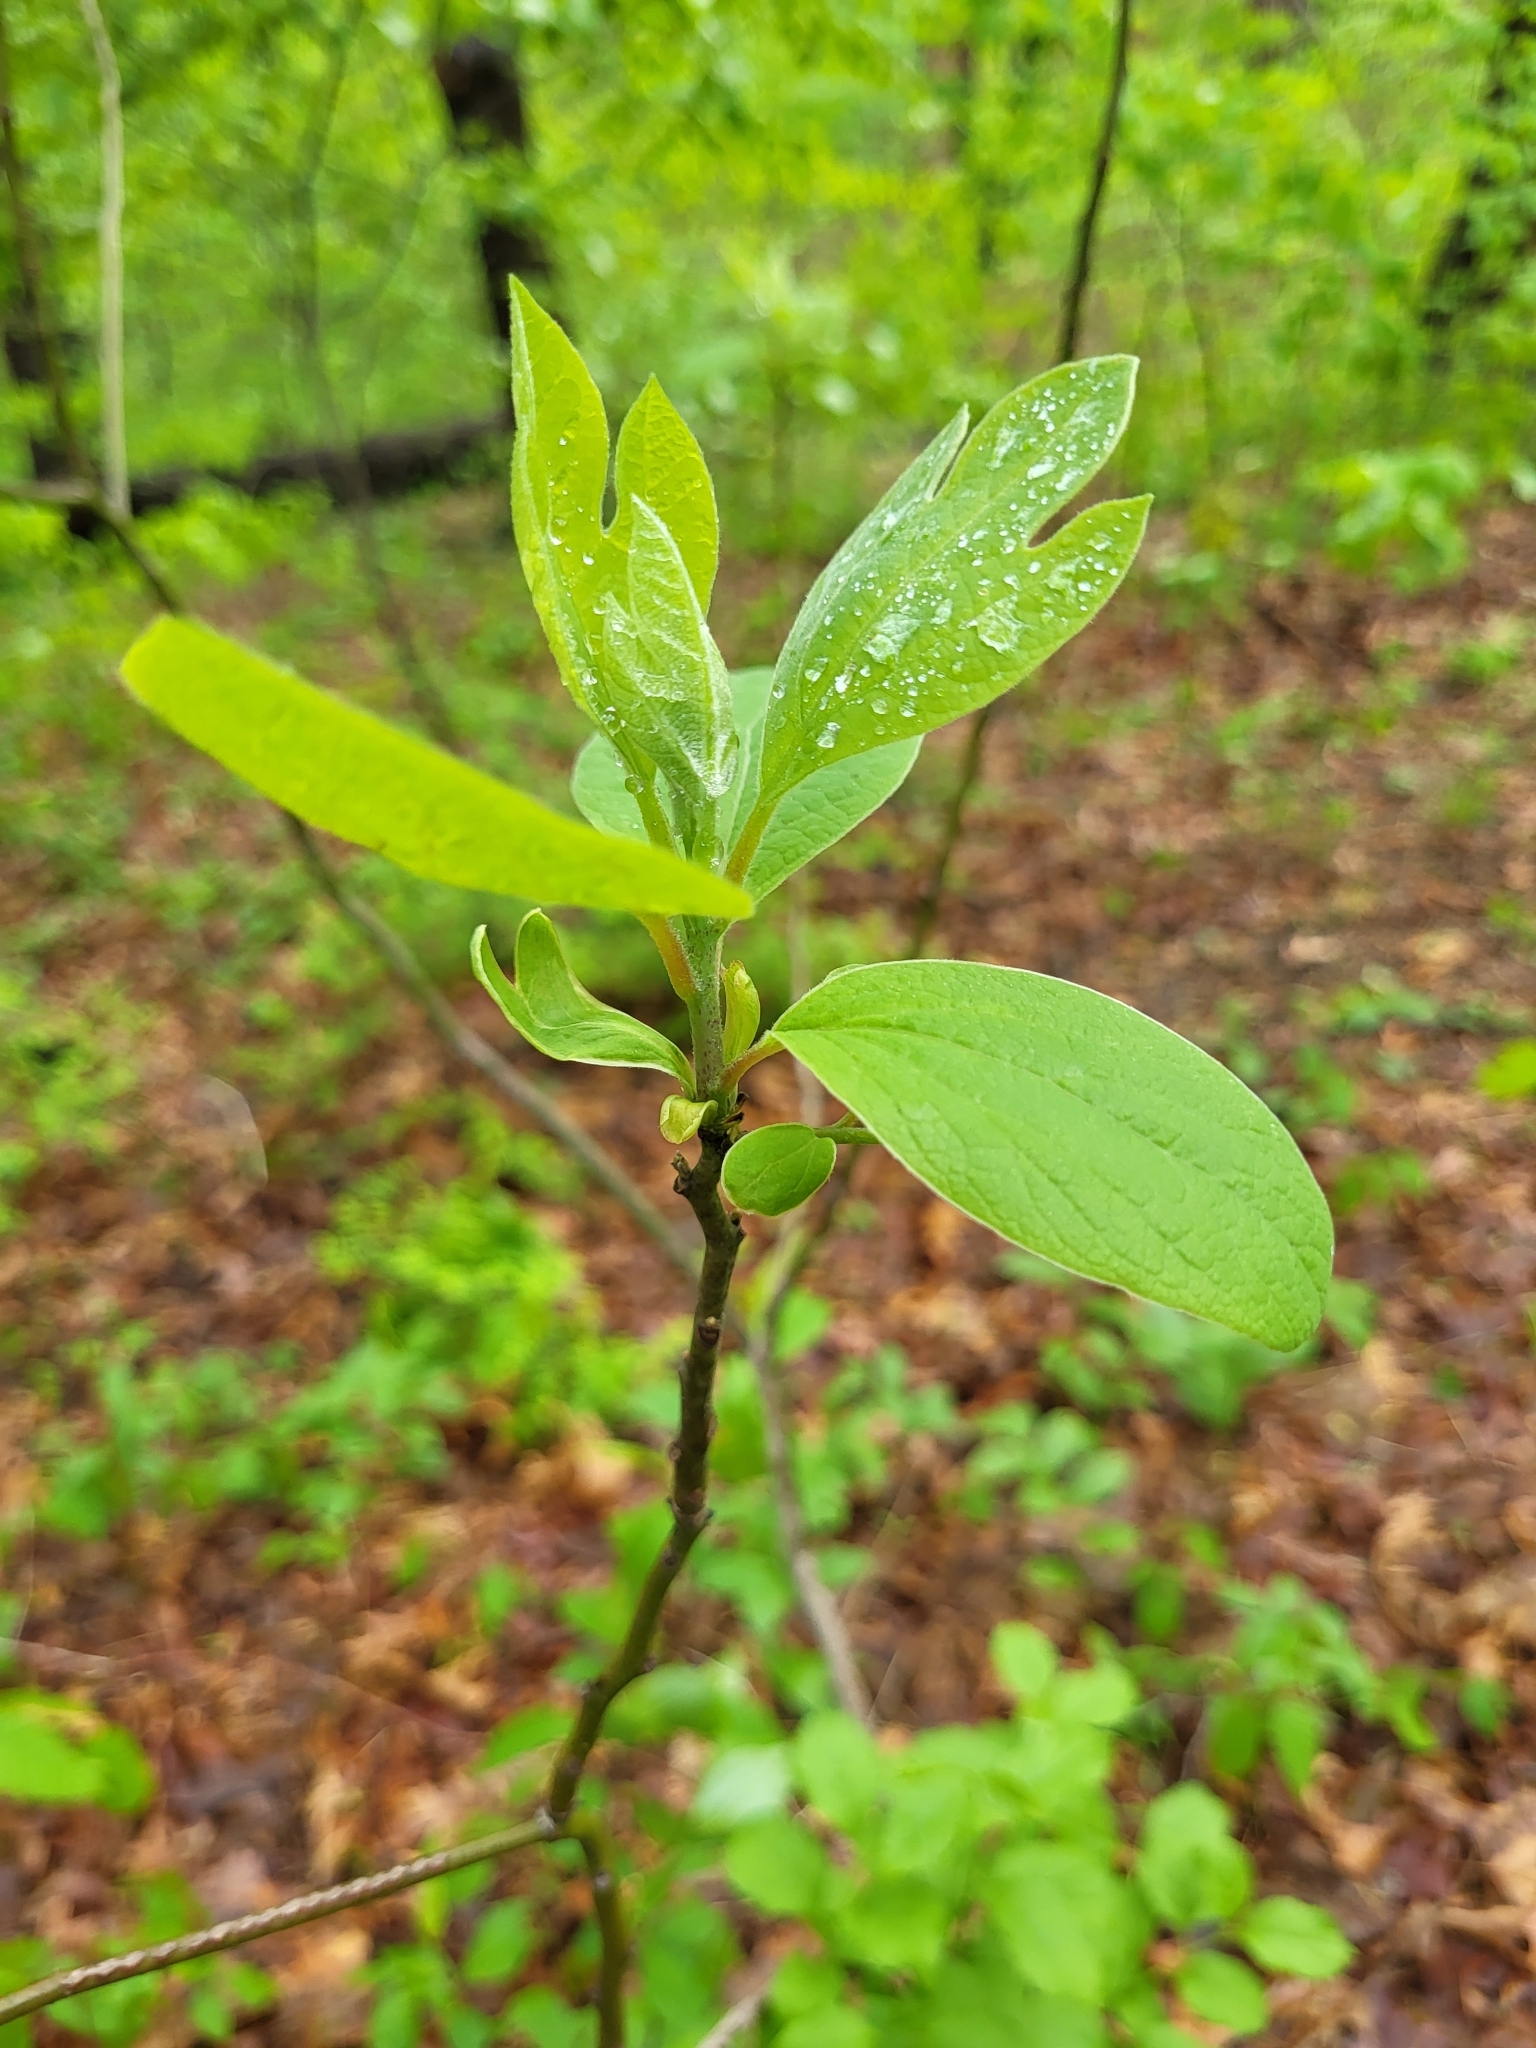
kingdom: Plantae
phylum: Tracheophyta
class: Magnoliopsida
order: Laurales
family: Lauraceae
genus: Sassafras
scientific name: Sassafras albidum
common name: Sassafras
